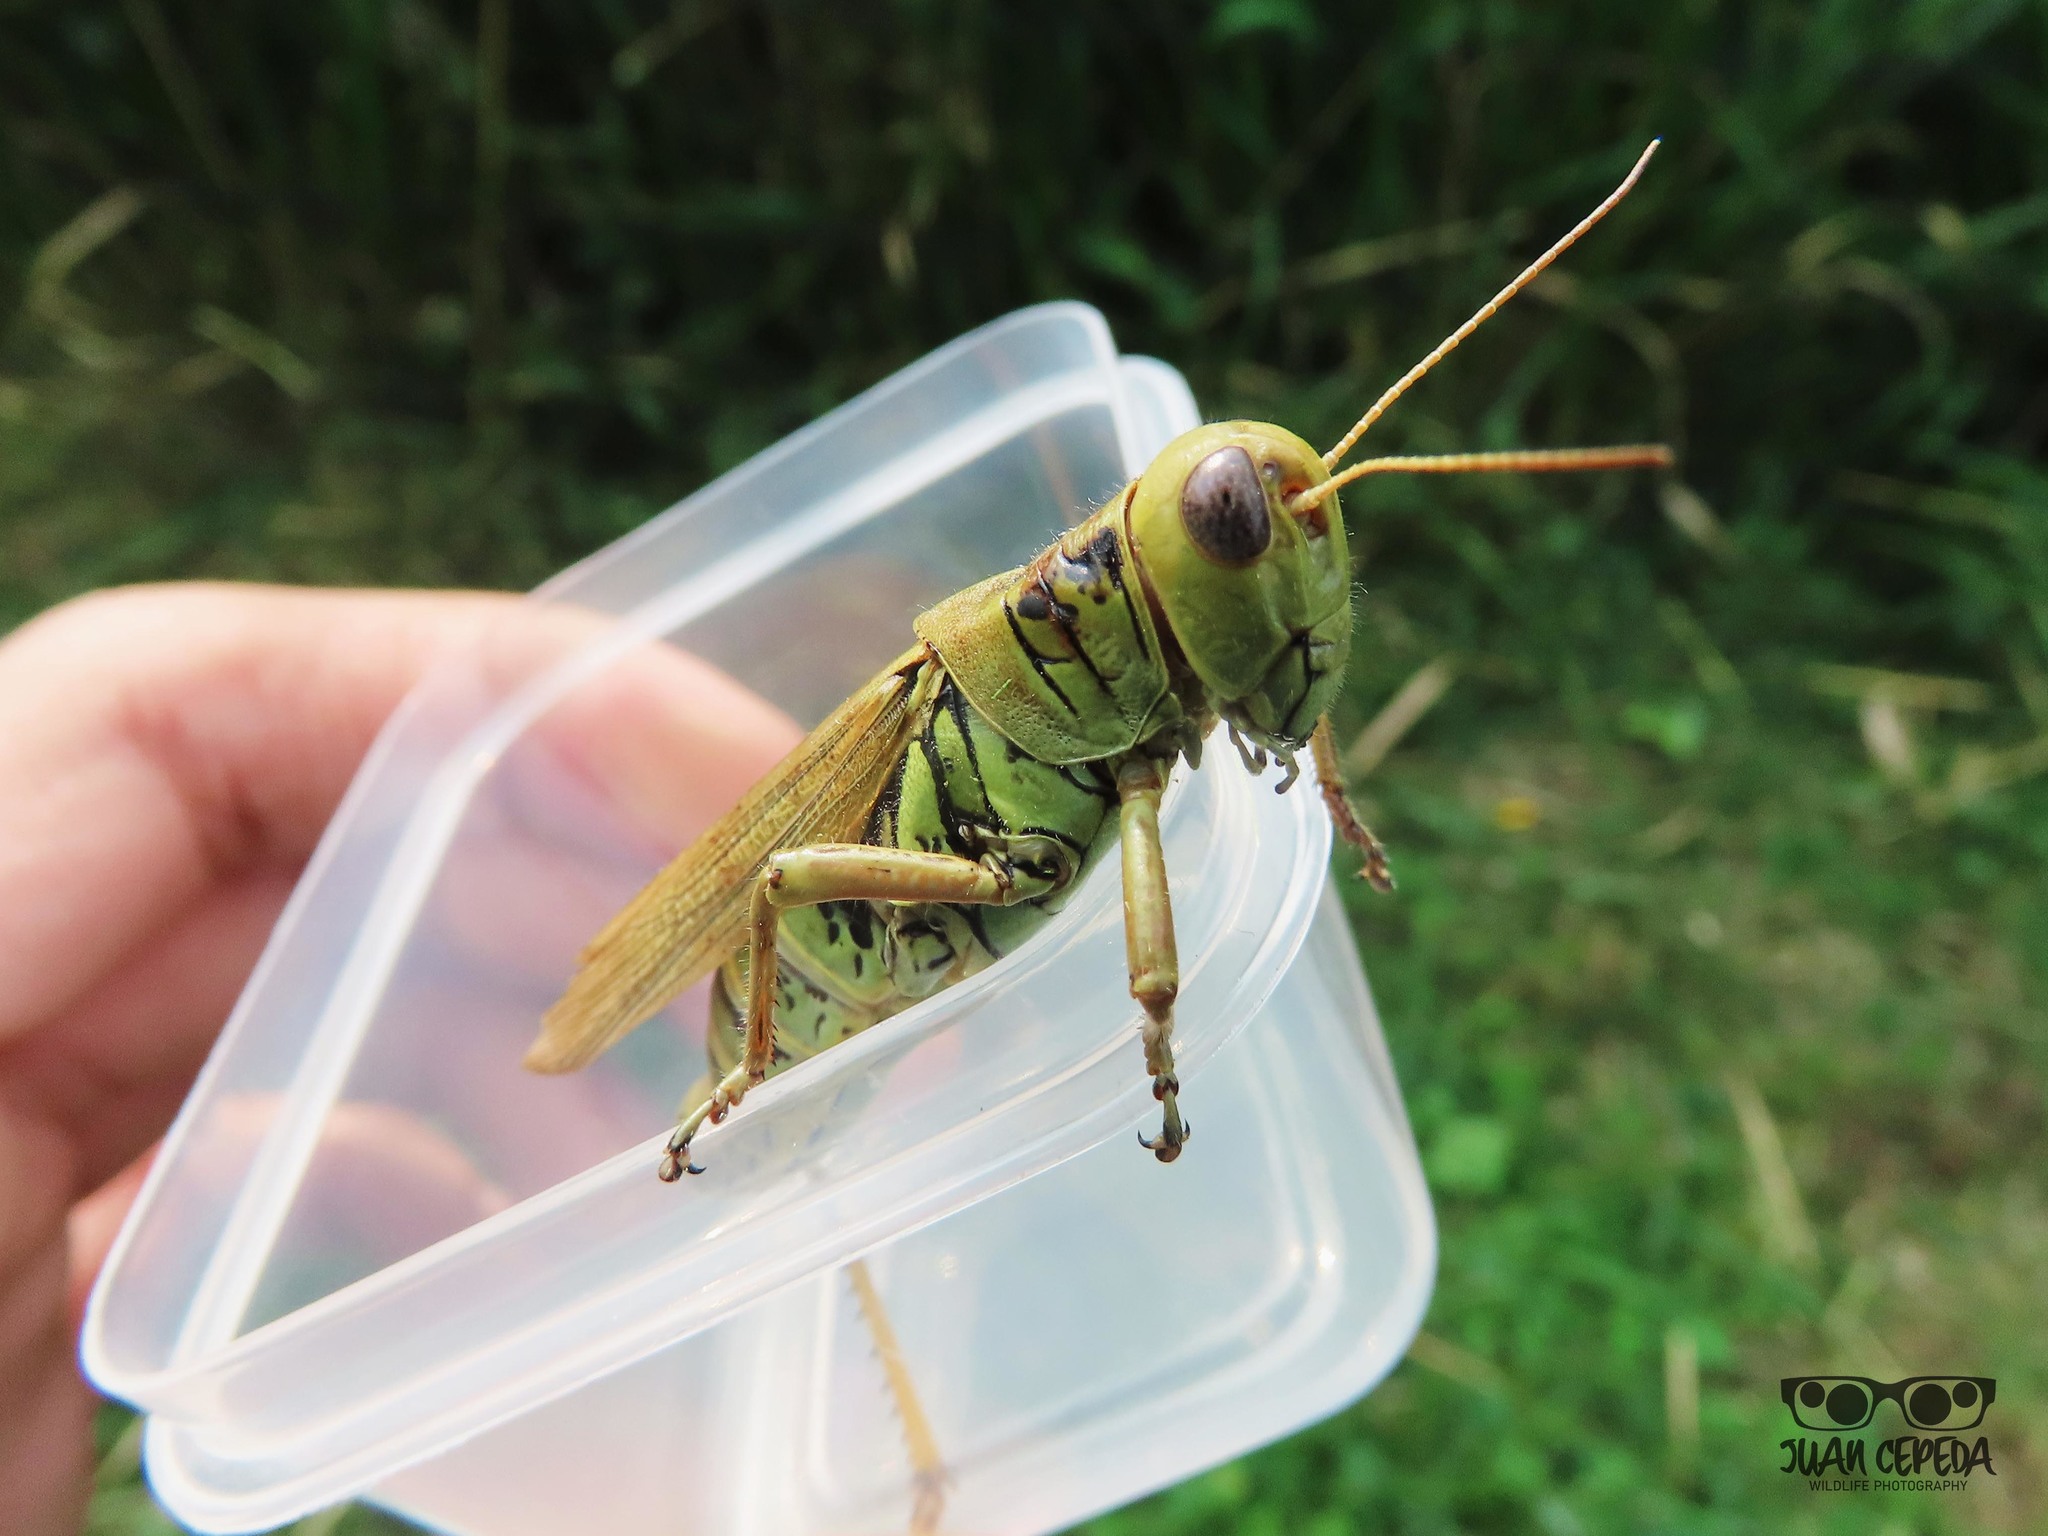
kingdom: Animalia
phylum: Arthropoda
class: Insecta
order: Orthoptera
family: Acrididae
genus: Melanoplus
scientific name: Melanoplus differentialis
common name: Differential grasshopper
